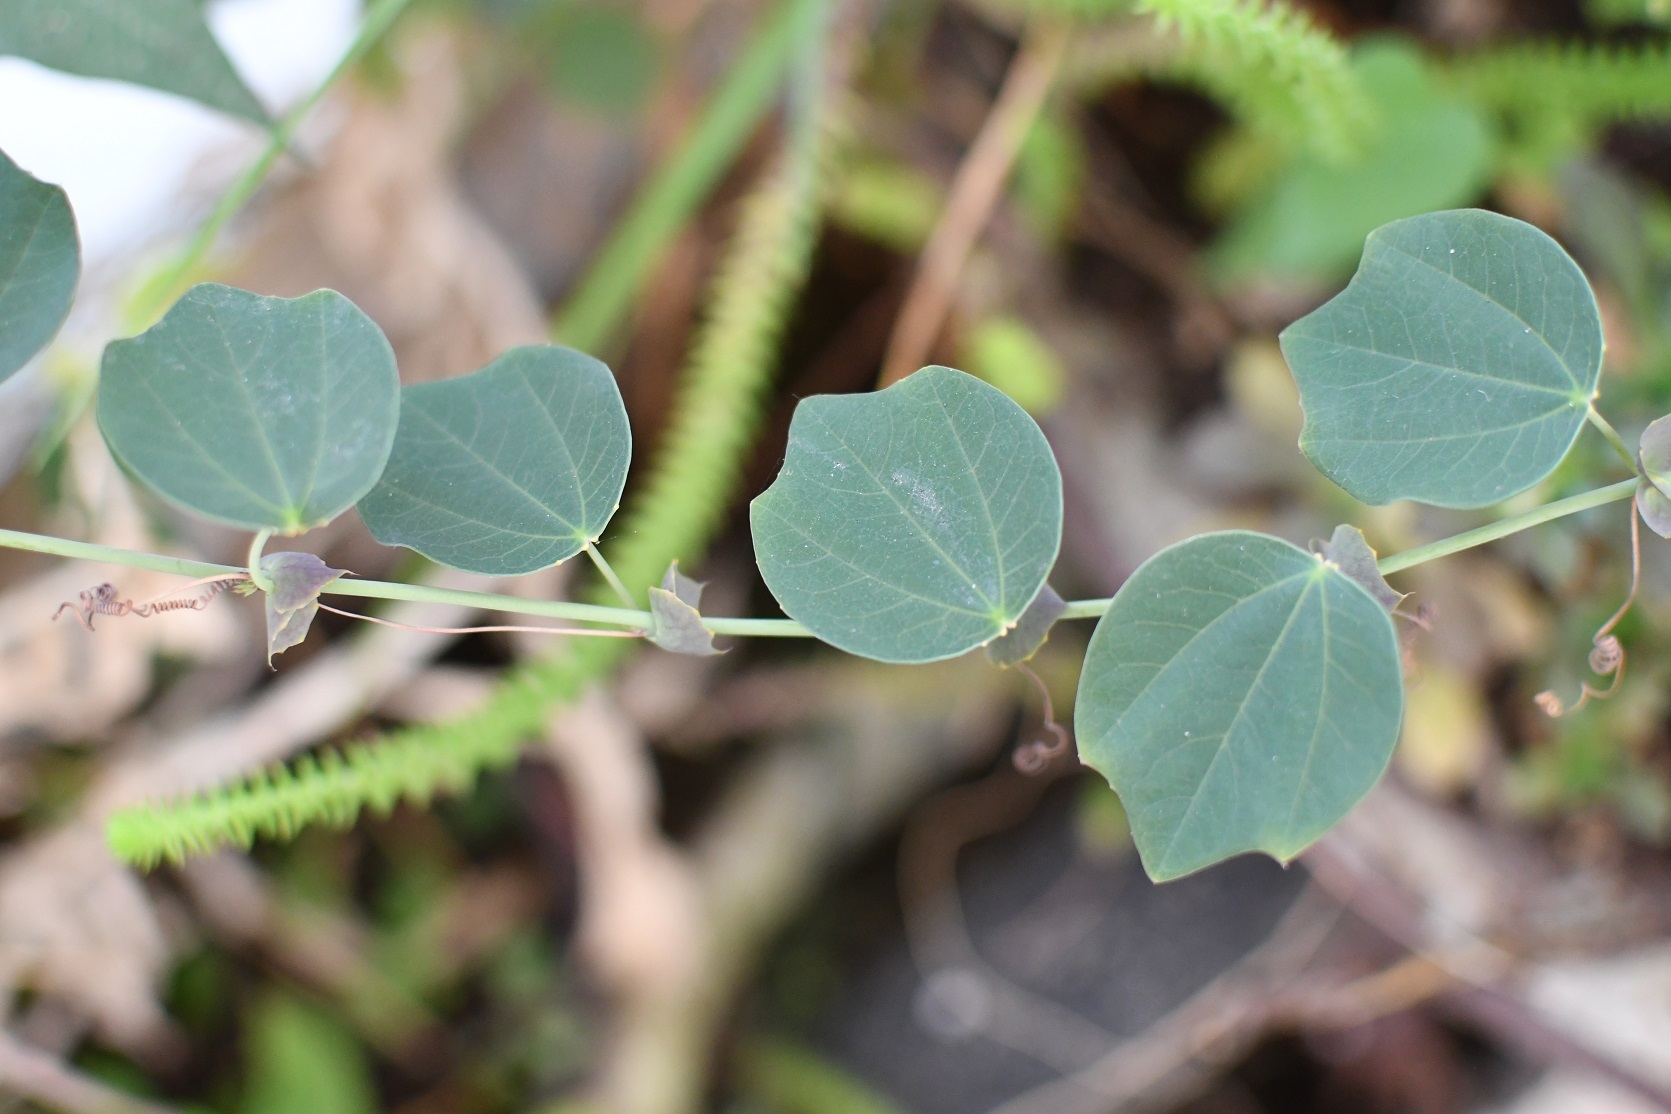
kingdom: Plantae
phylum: Tracheophyta
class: Magnoliopsida
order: Malpighiales
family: Passifloraceae
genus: Passiflora
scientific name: Passiflora membranacea
